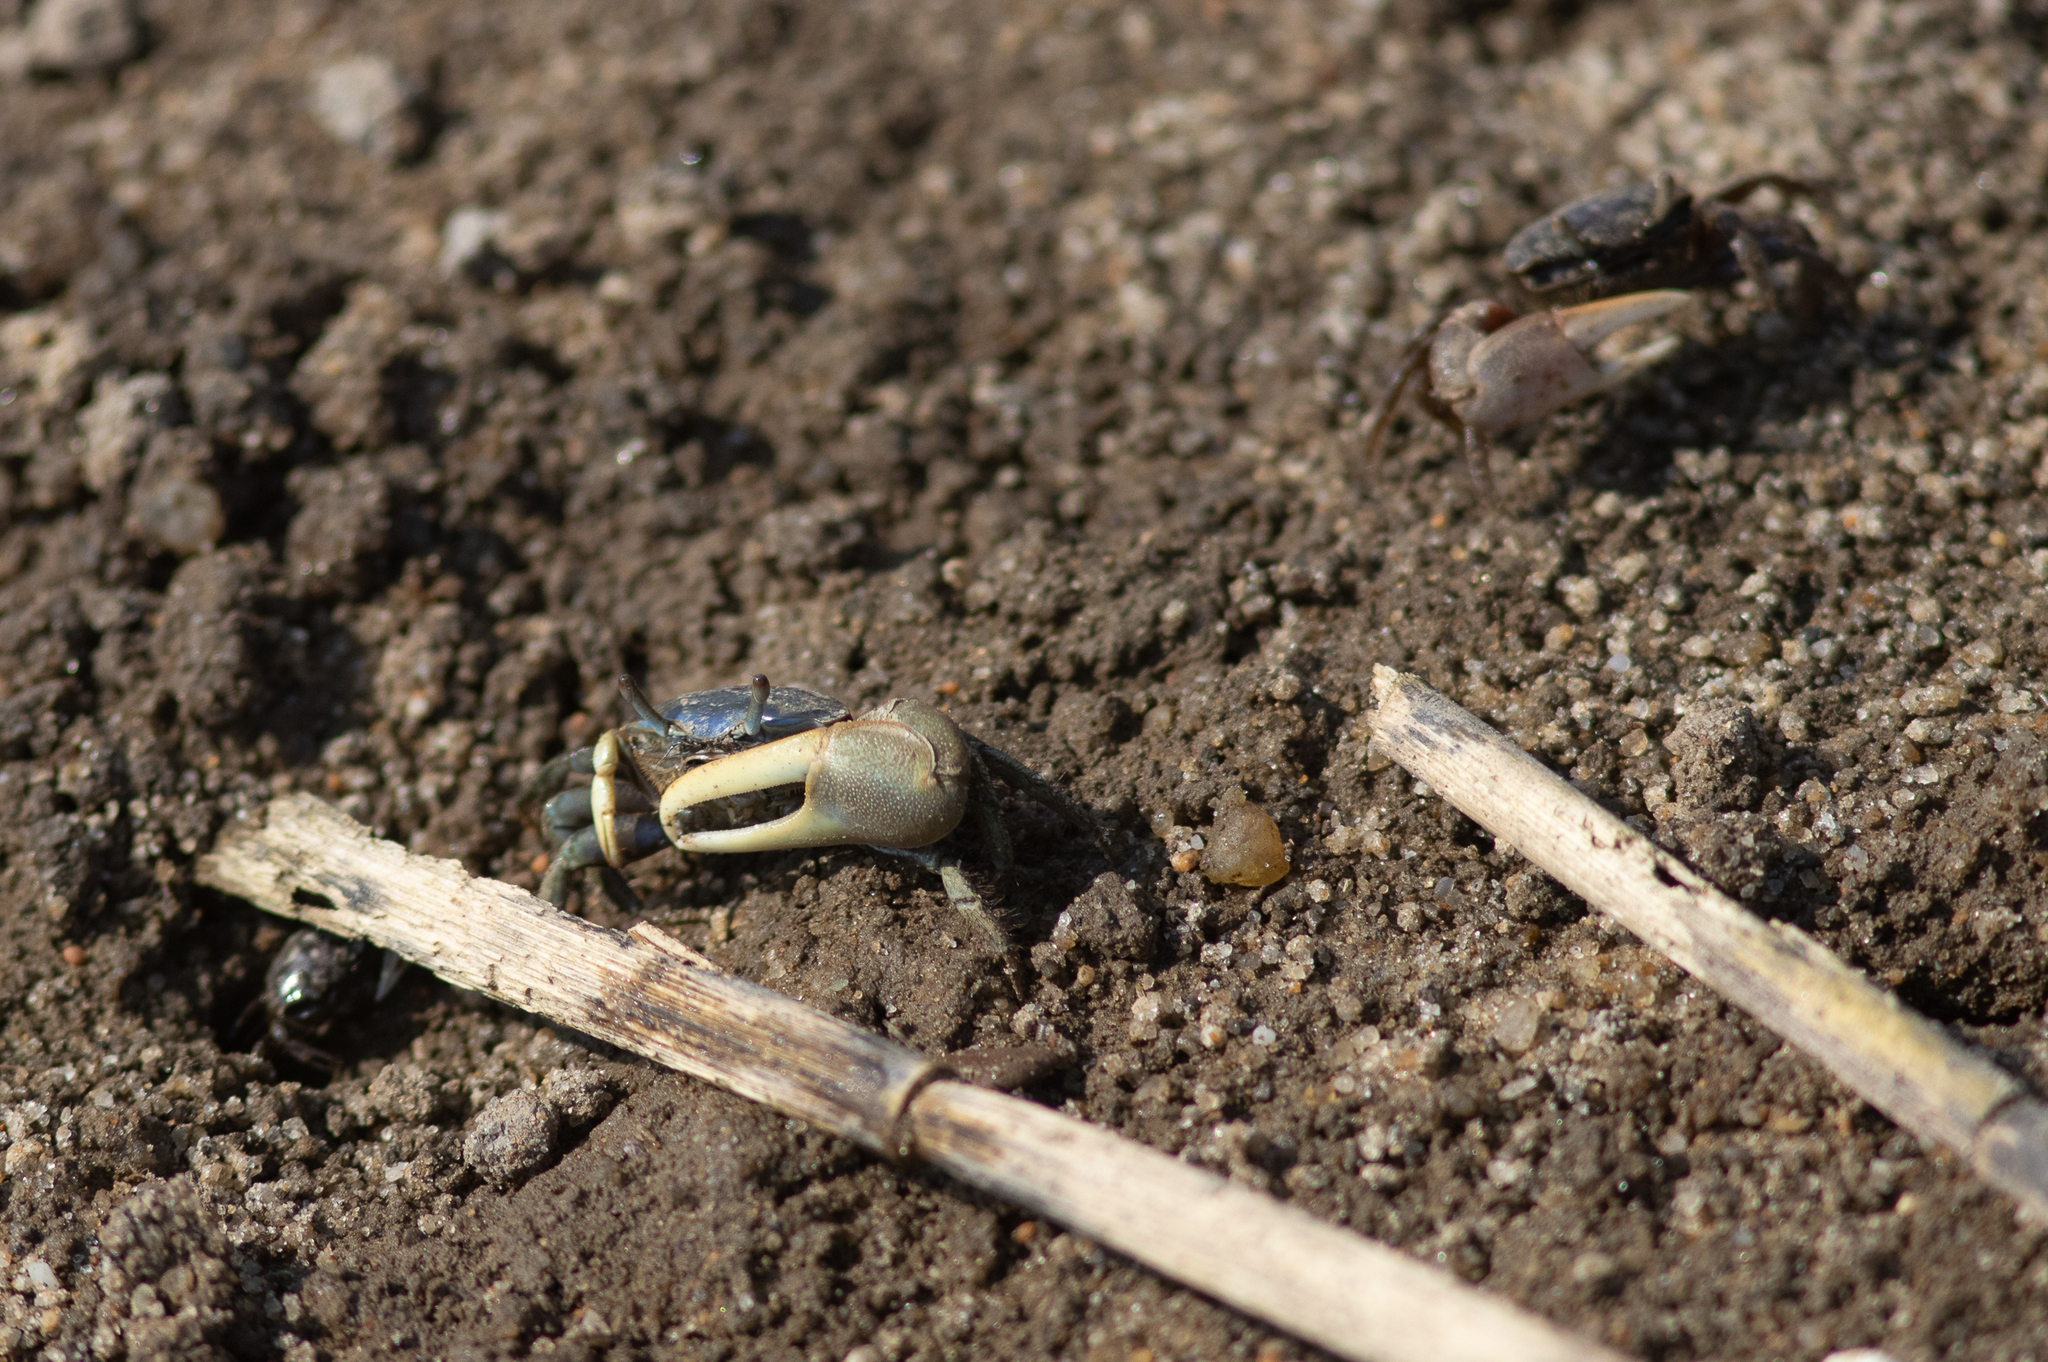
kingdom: Animalia
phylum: Arthropoda
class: Malacostraca
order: Decapoda
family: Ocypodidae
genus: Minuca
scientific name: Minuca pugnax
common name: Mud fiddler crab
